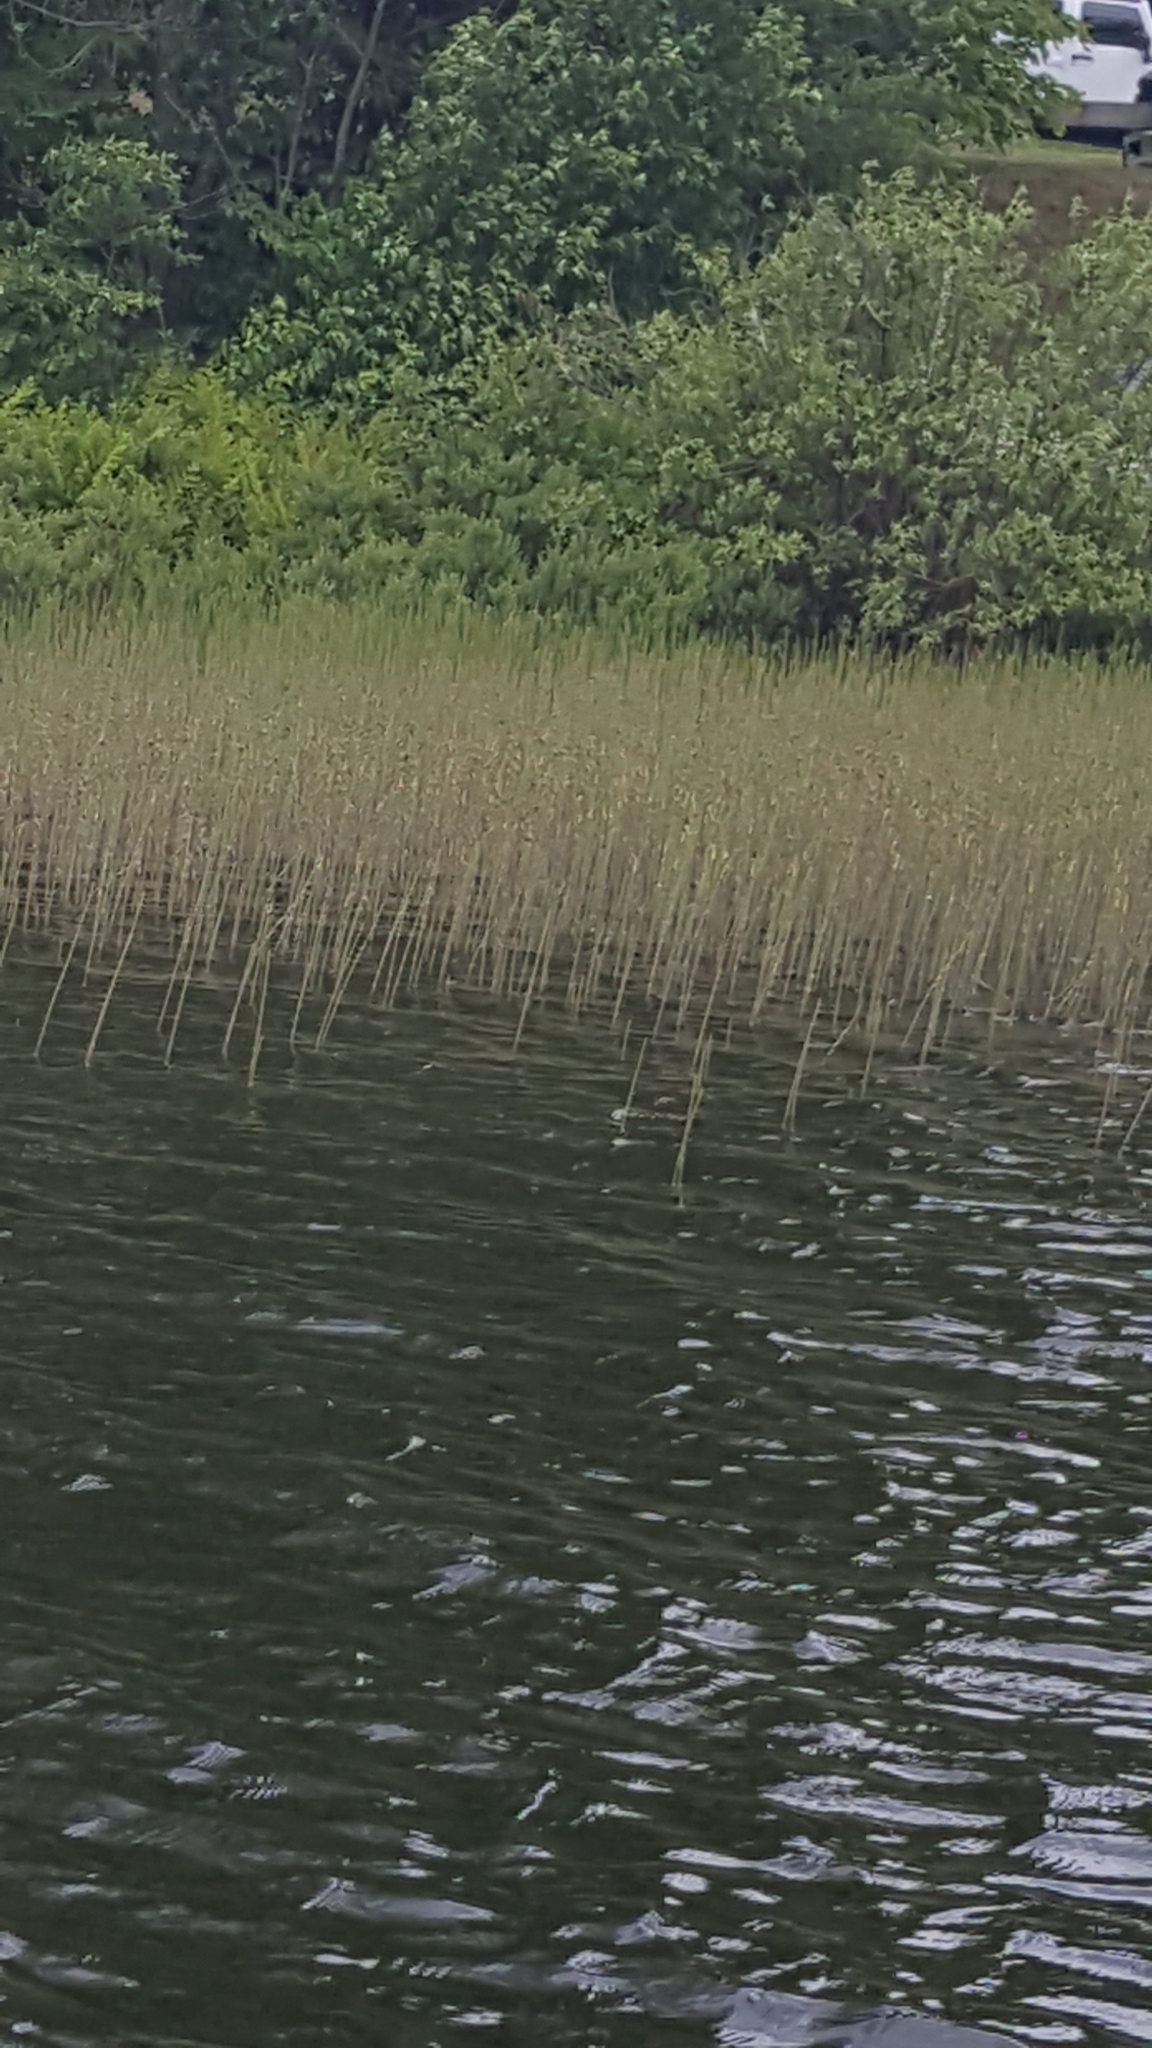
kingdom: Plantae
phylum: Tracheophyta
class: Polypodiopsida
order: Equisetales
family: Equisetaceae
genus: Equisetum
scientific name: Equisetum fluviatile
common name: Water horsetail
